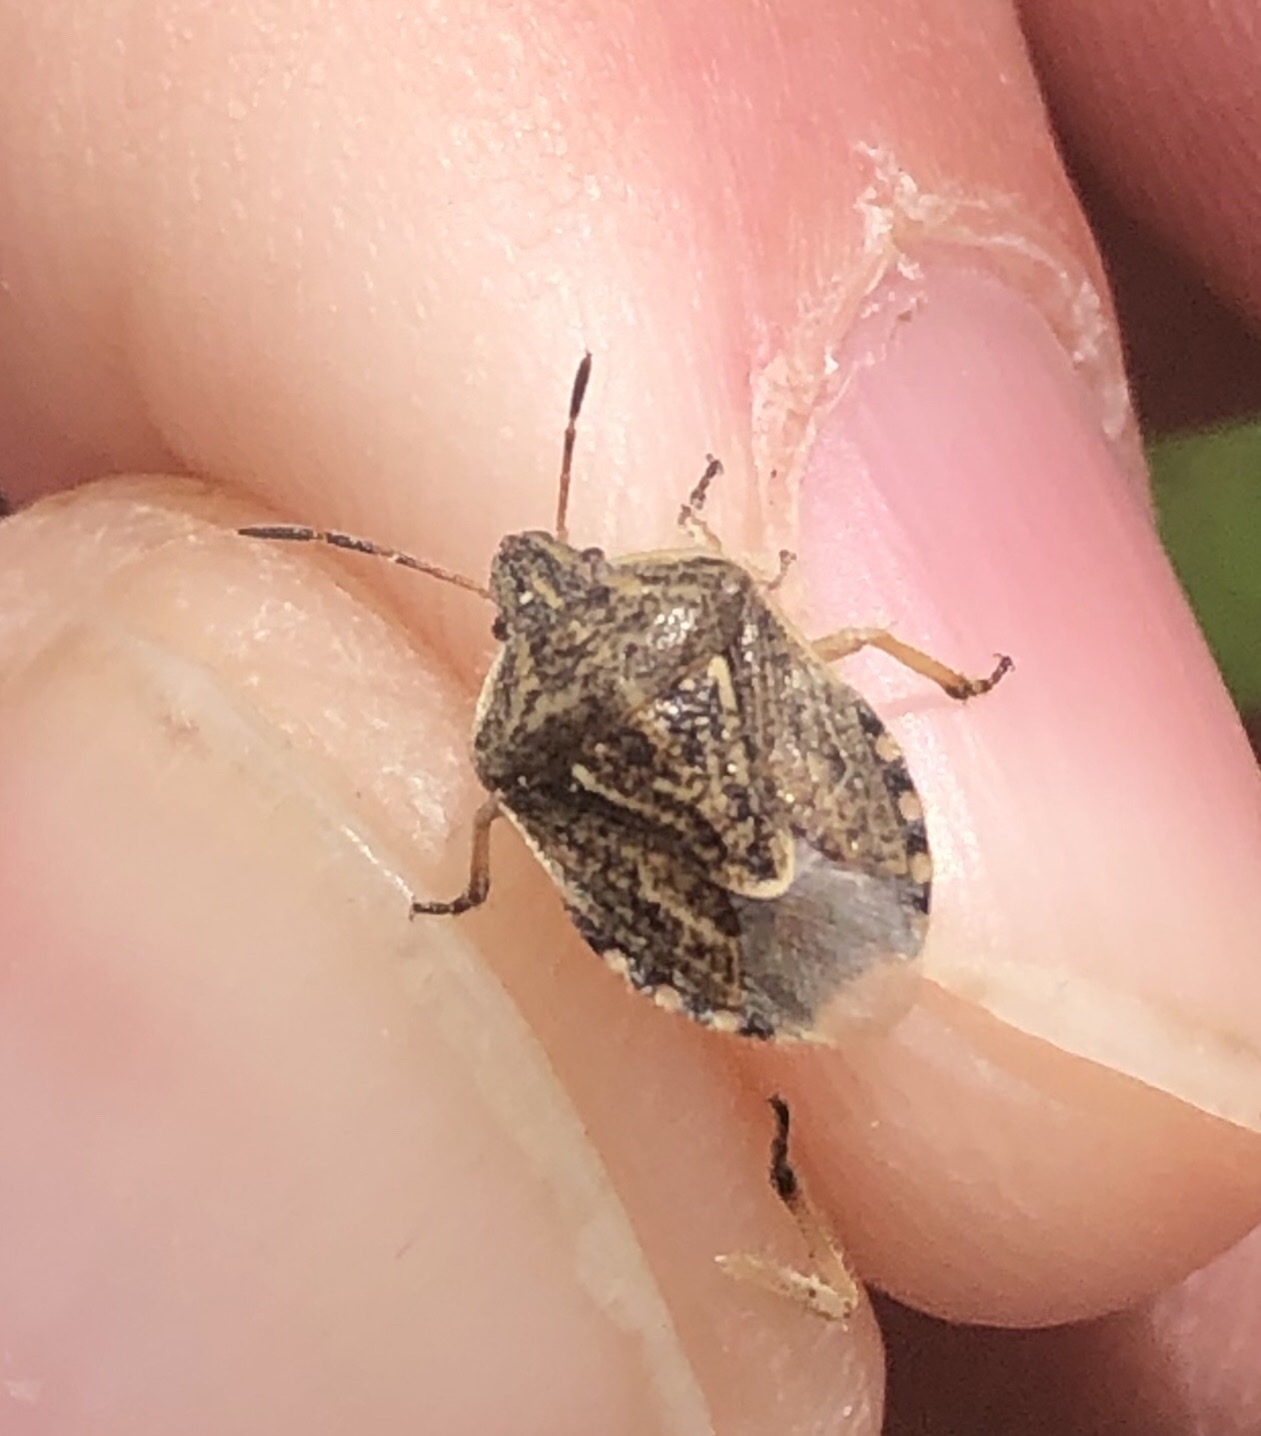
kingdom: Animalia
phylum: Arthropoda
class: Insecta
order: Hemiptera
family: Pentatomidae
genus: Trichopepla
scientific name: Trichopepla semivittata
